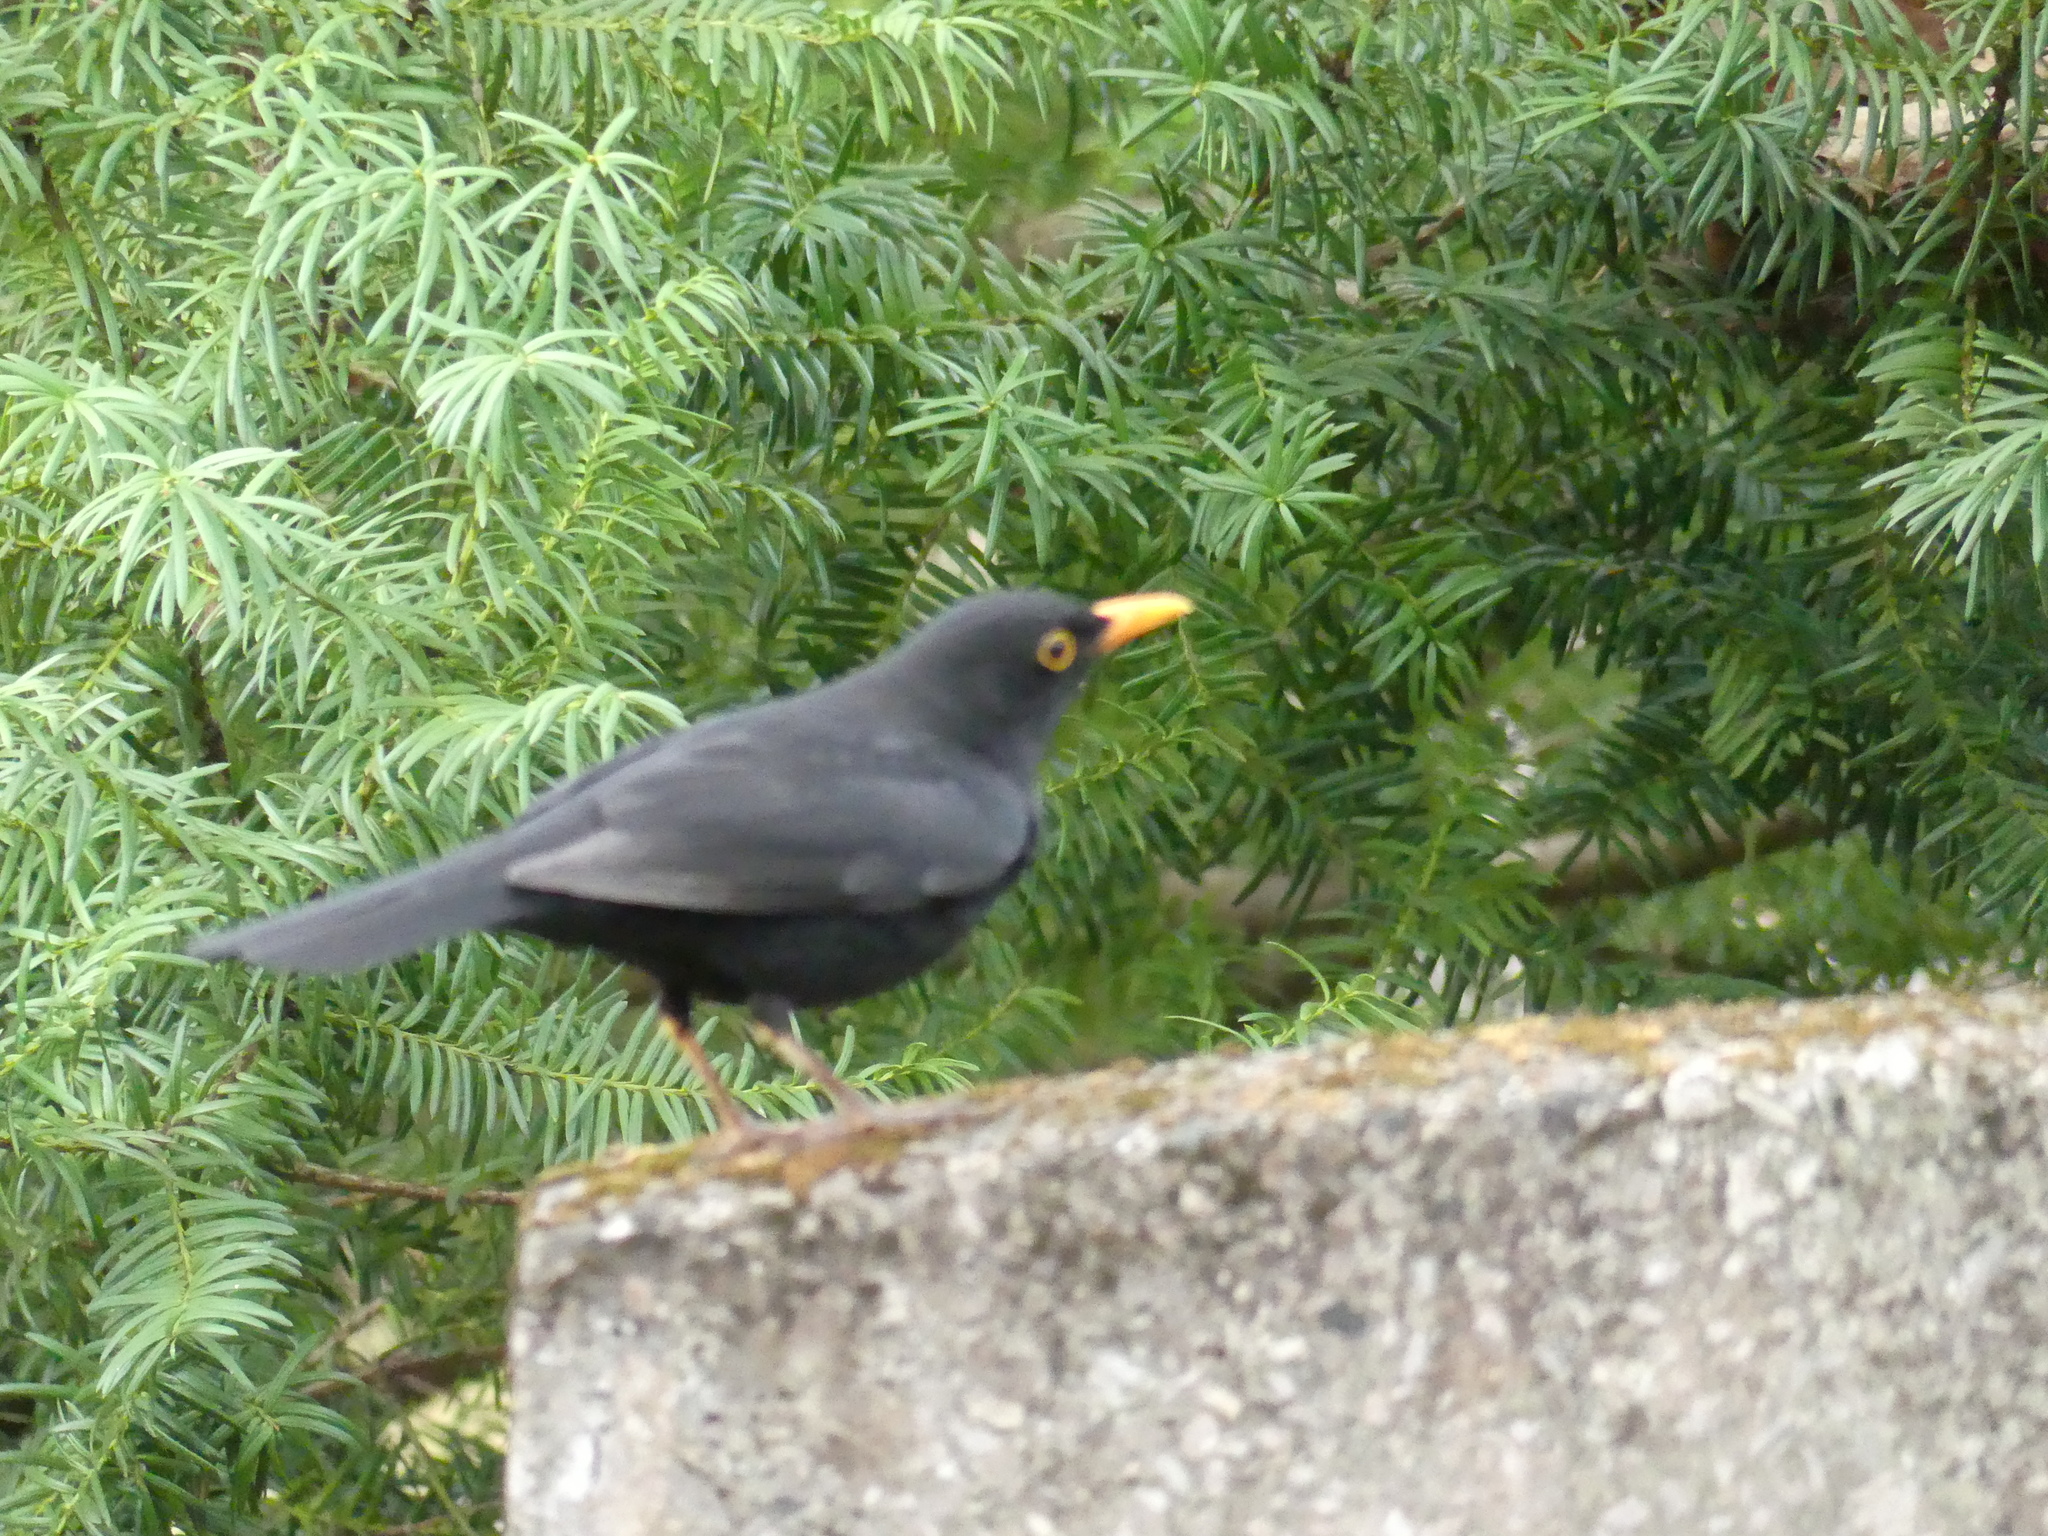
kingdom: Animalia
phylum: Chordata
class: Aves
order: Passeriformes
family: Turdidae
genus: Turdus
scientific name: Turdus merula
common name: Common blackbird
